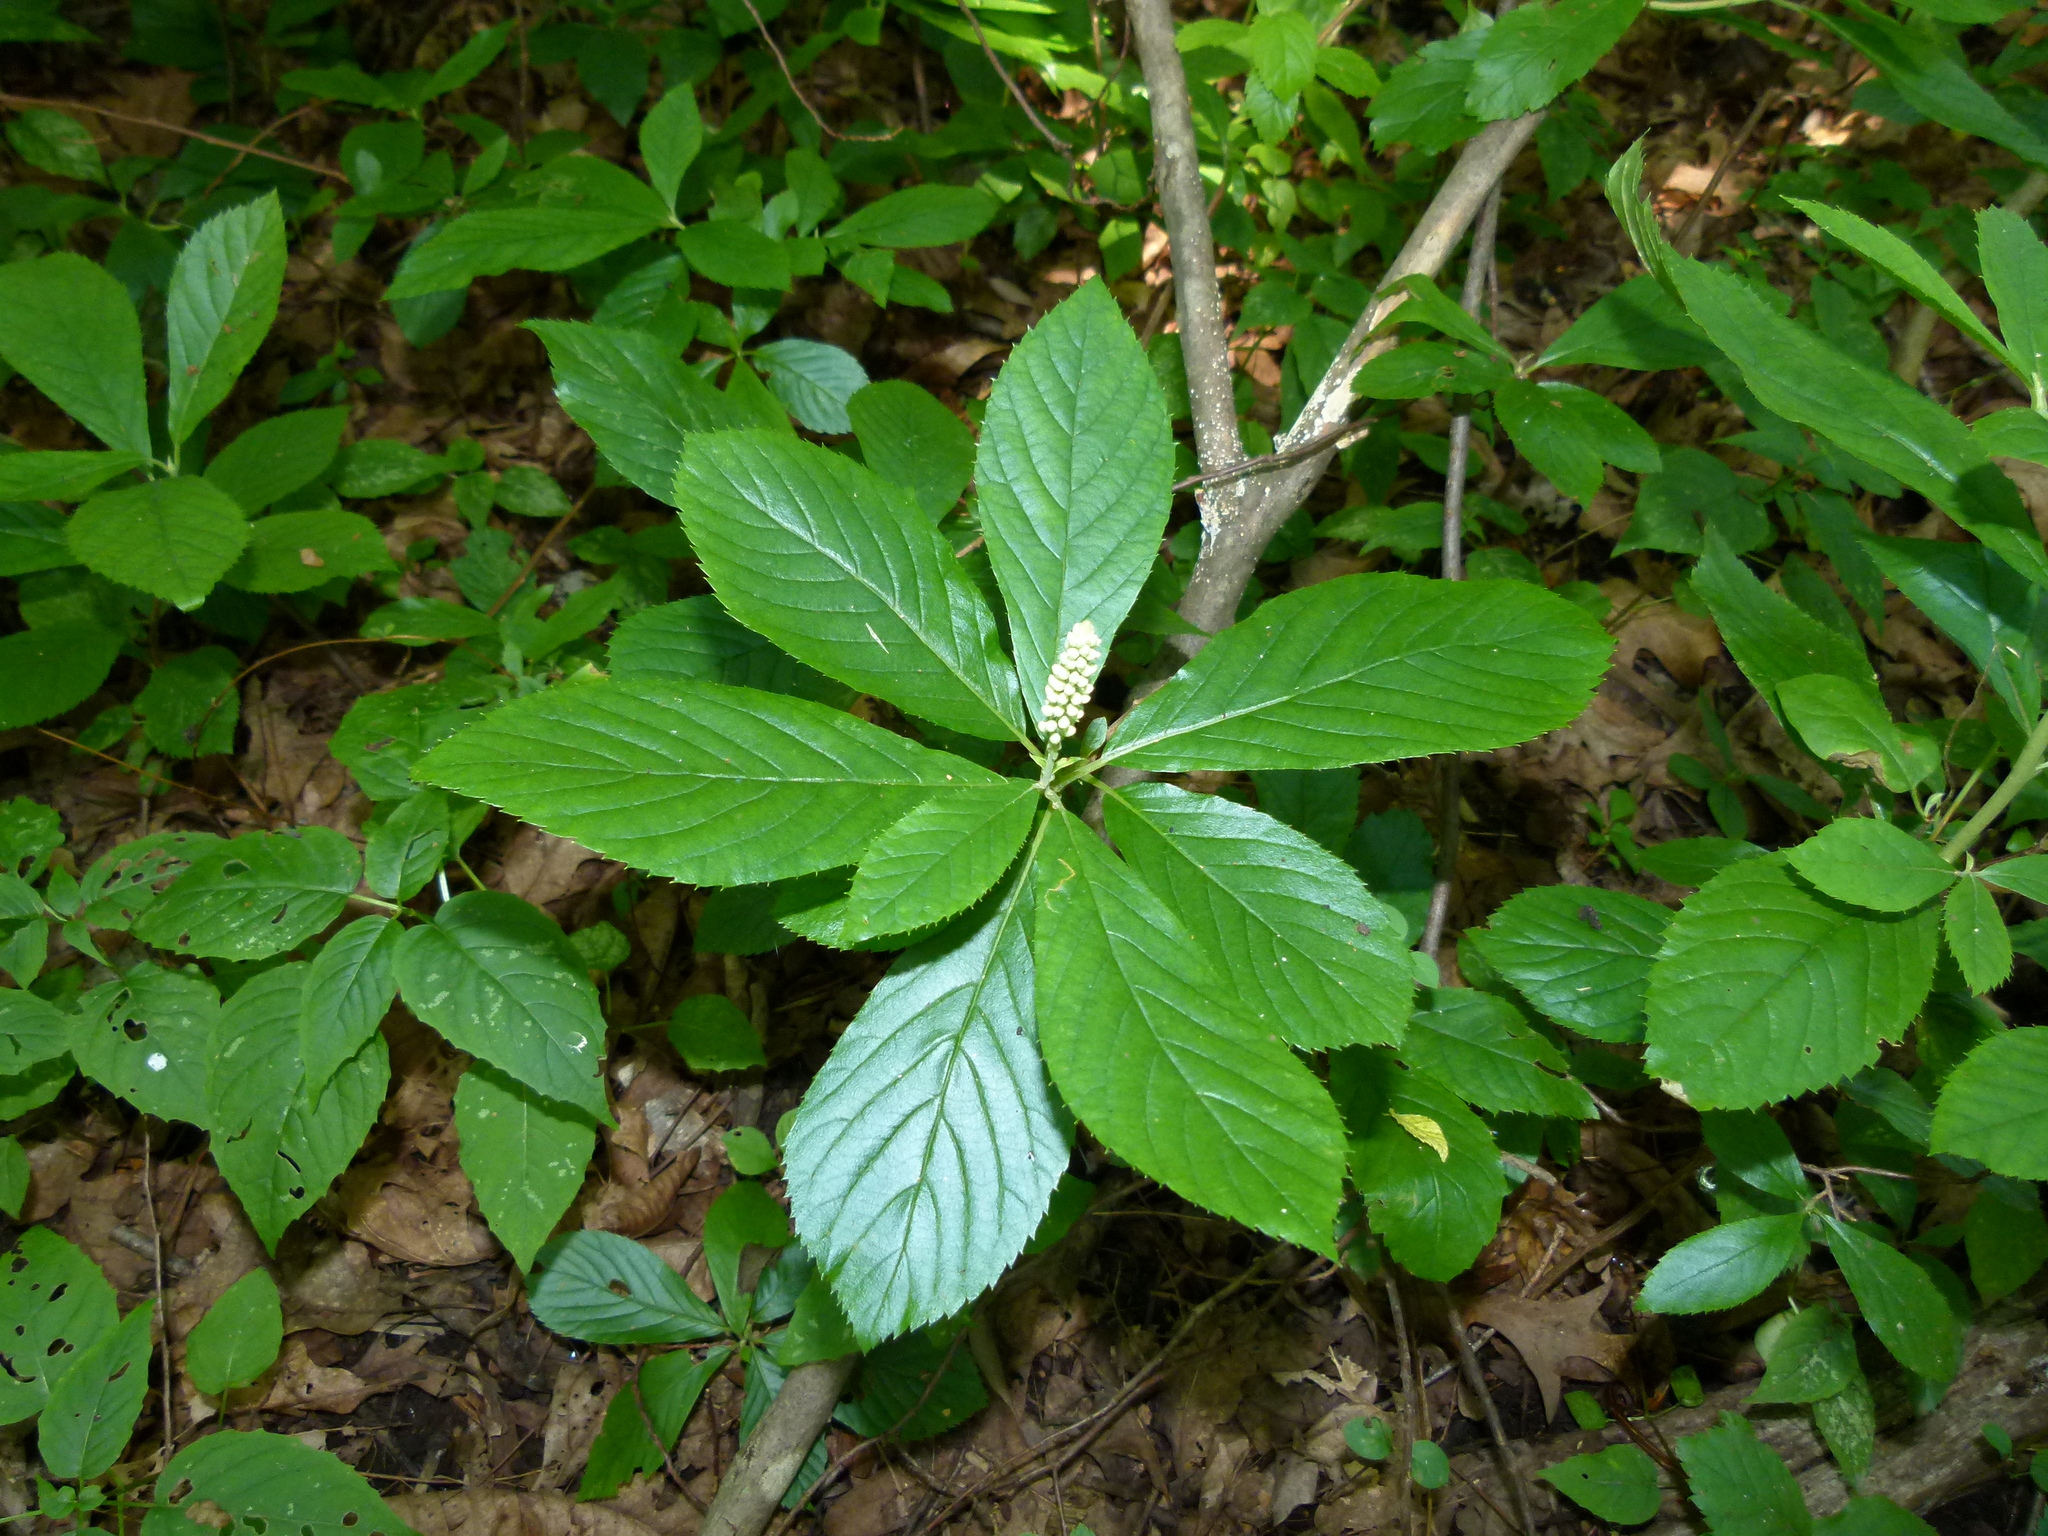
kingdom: Plantae
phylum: Tracheophyta
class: Magnoliopsida
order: Ericales
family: Clethraceae
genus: Clethra
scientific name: Clethra alnifolia
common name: Sweet pepperbush
